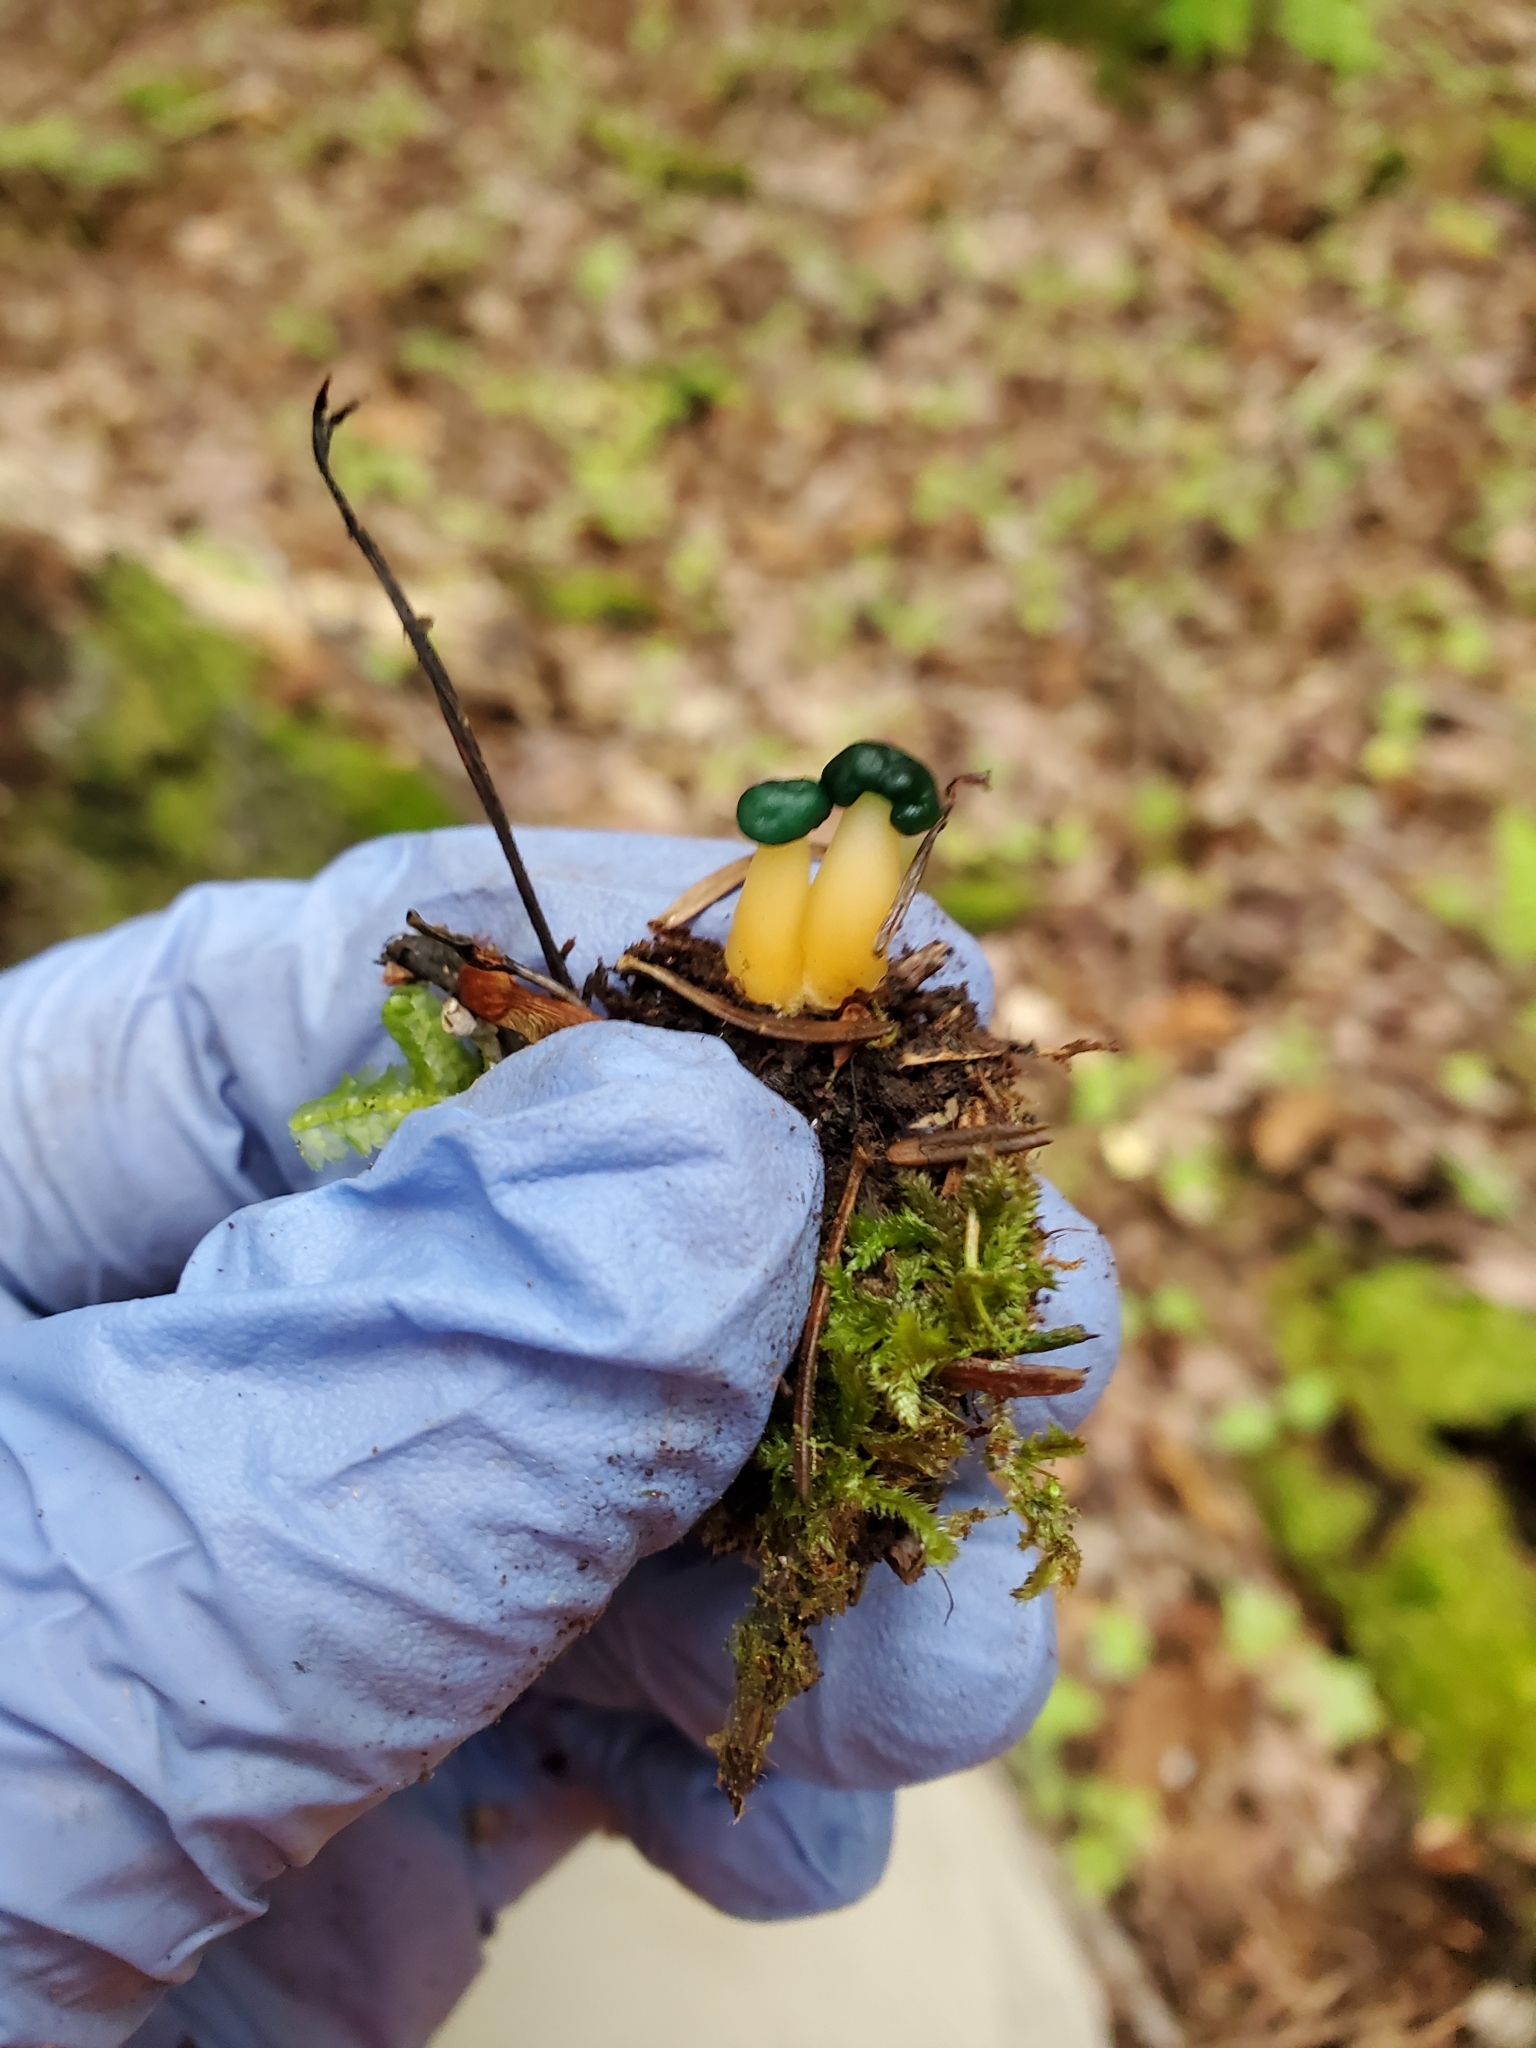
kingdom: Fungi
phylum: Ascomycota
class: Leotiomycetes
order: Leotiales
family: Leotiaceae
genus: Leotia
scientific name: Leotia lubrica
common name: Jellybaby
